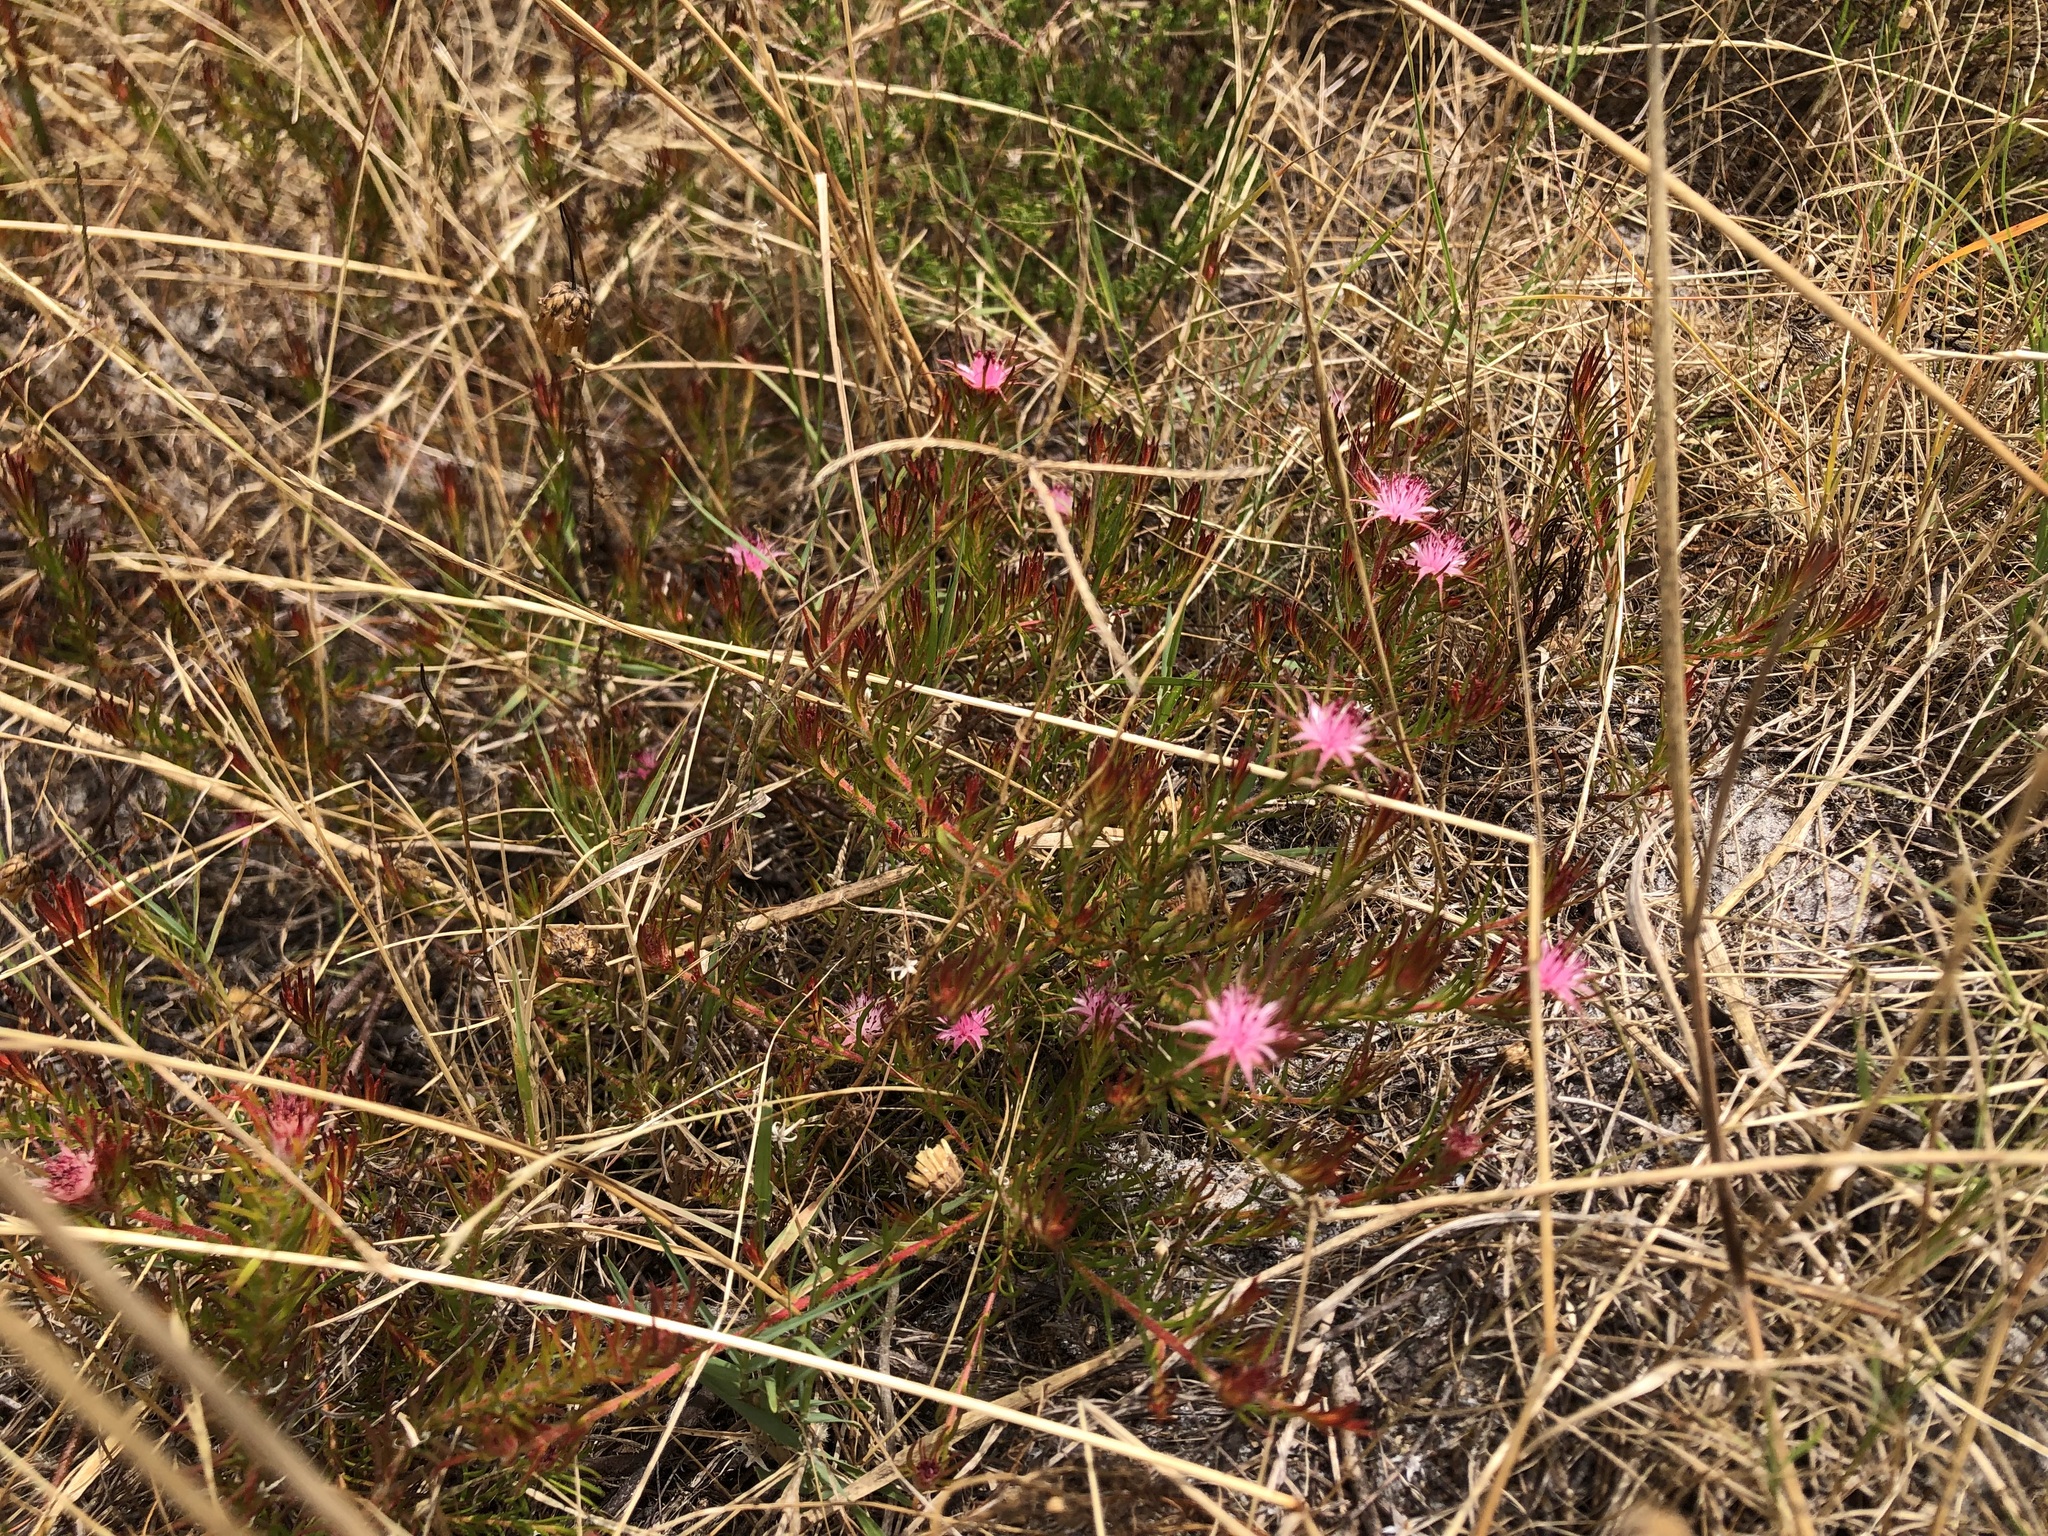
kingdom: Plantae
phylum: Tracheophyta
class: Magnoliopsida
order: Proteales
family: Proteaceae
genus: Diastella
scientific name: Diastella proteoides
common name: Flats silkypuff
